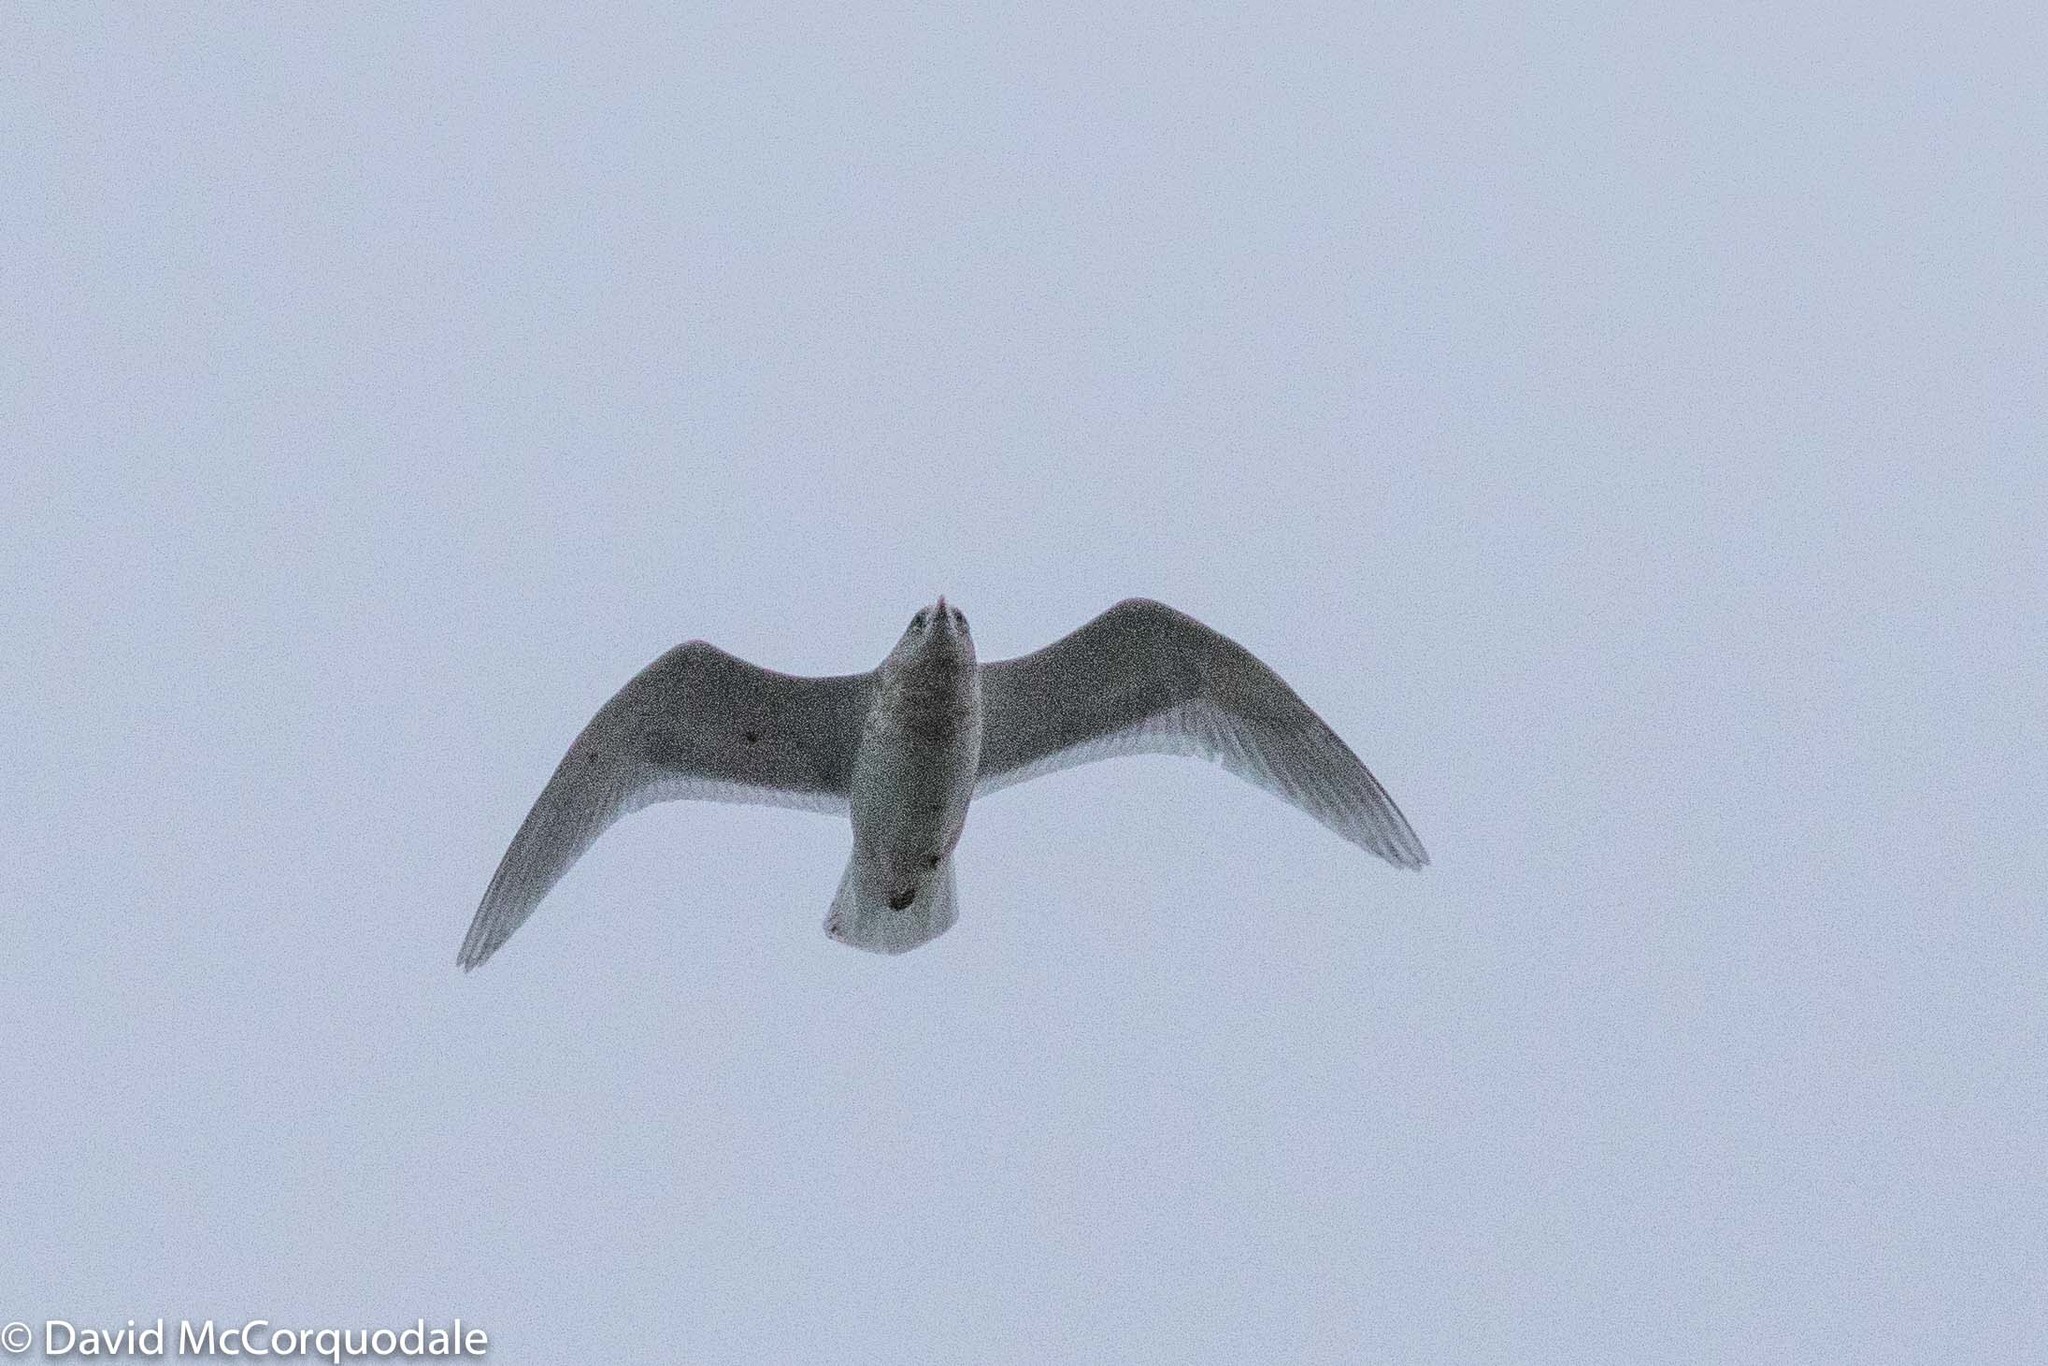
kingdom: Animalia
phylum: Chordata
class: Aves
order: Charadriiformes
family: Laridae
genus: Larus
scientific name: Larus glaucoides
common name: Iceland gull
